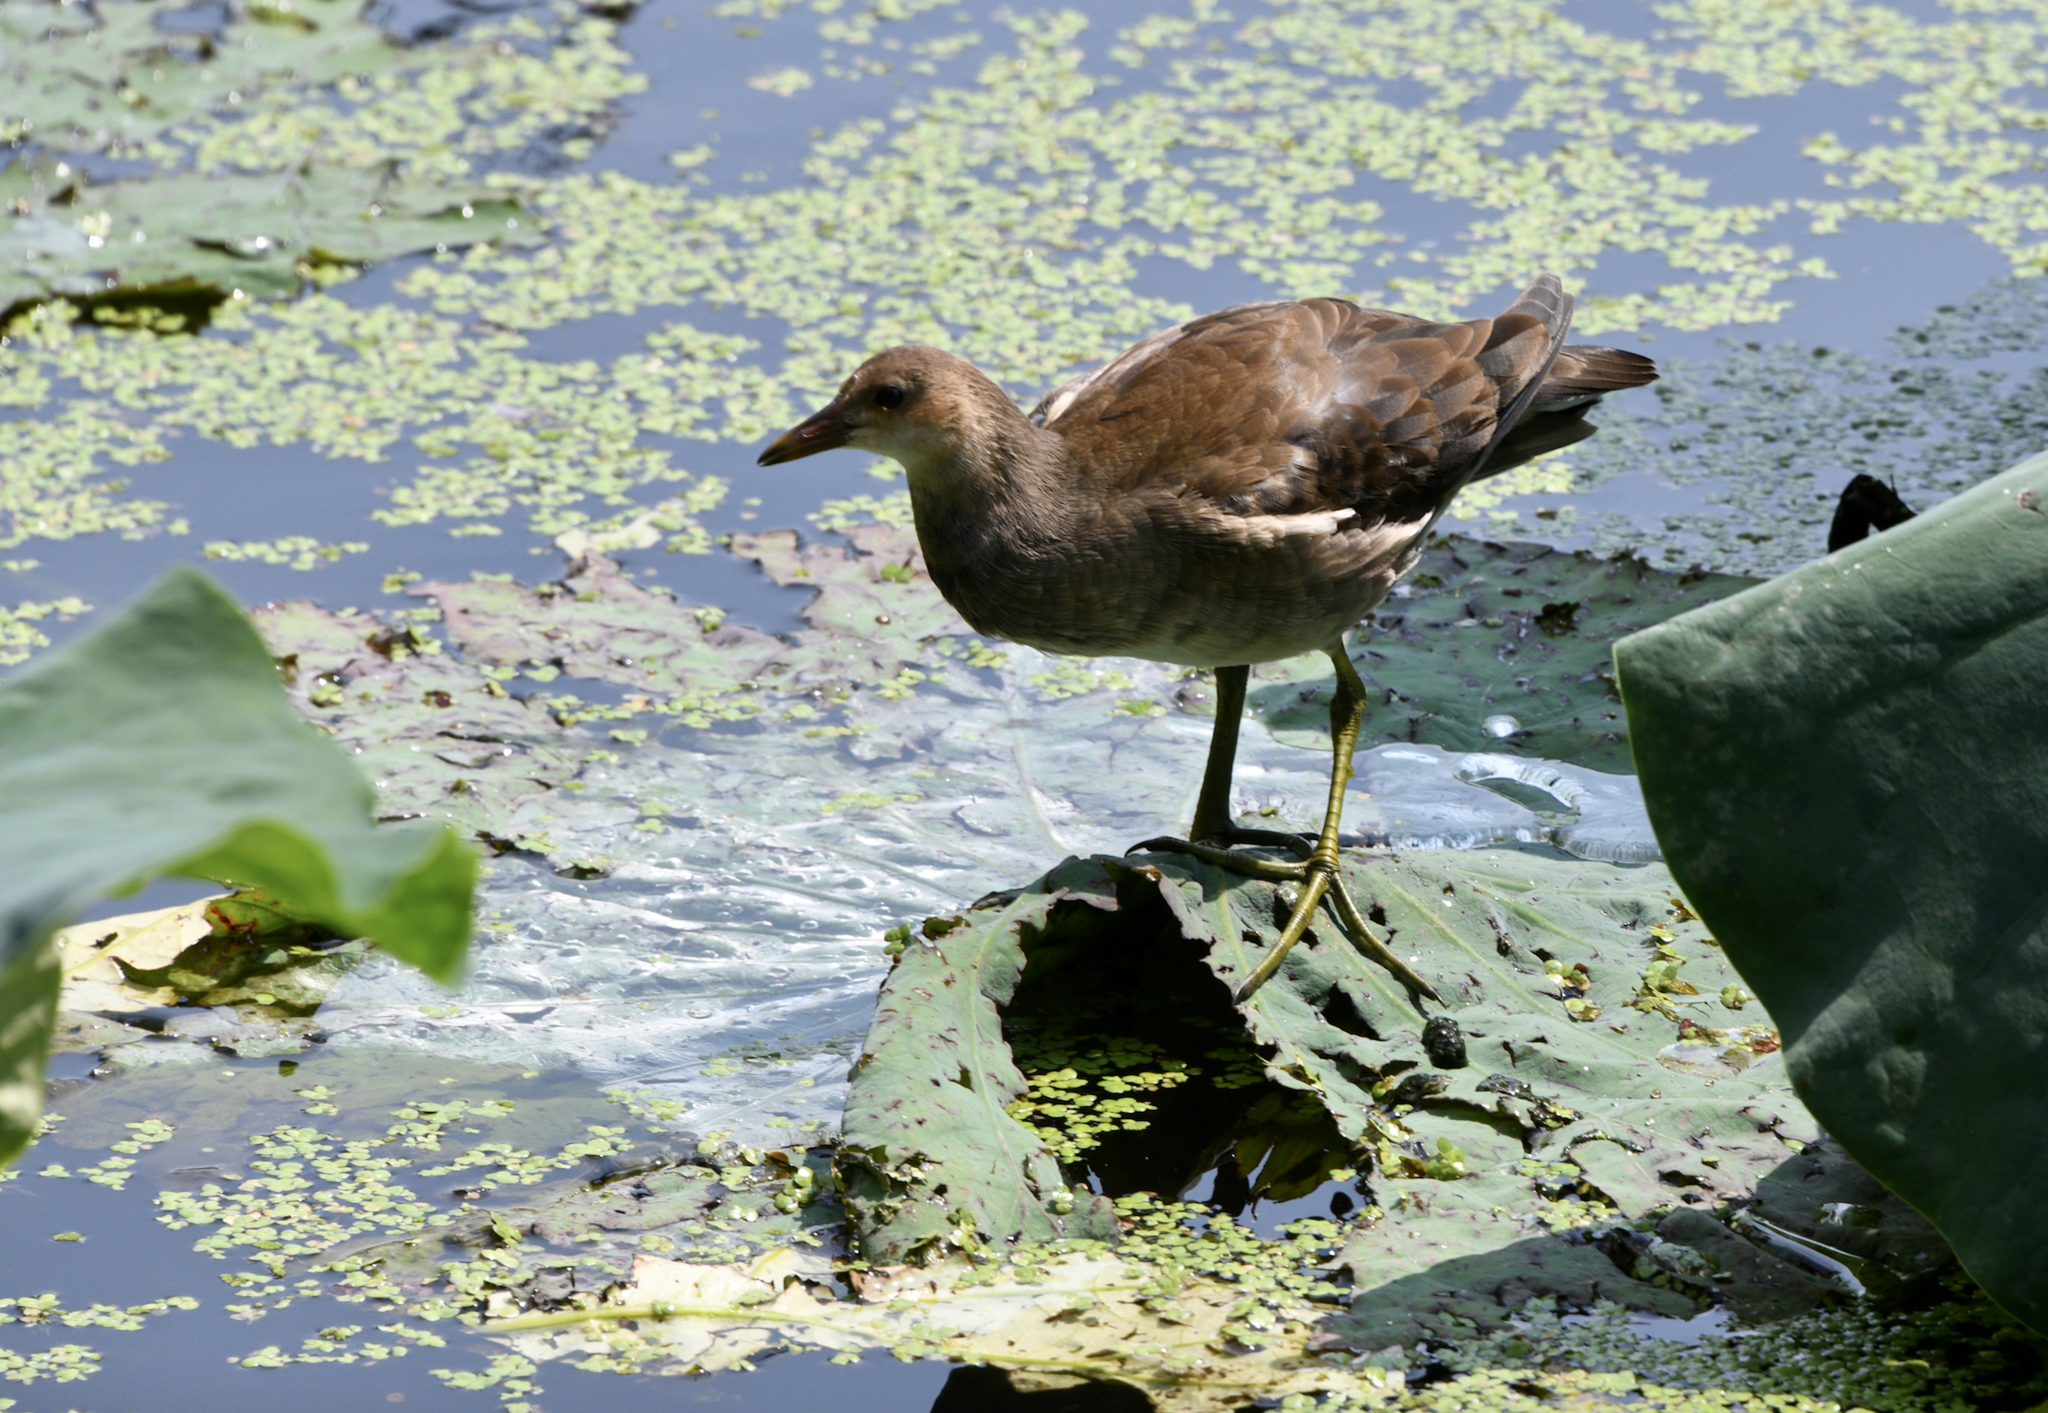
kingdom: Animalia
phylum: Chordata
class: Aves
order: Gruiformes
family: Rallidae
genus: Gallinula
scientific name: Gallinula chloropus
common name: Common moorhen
